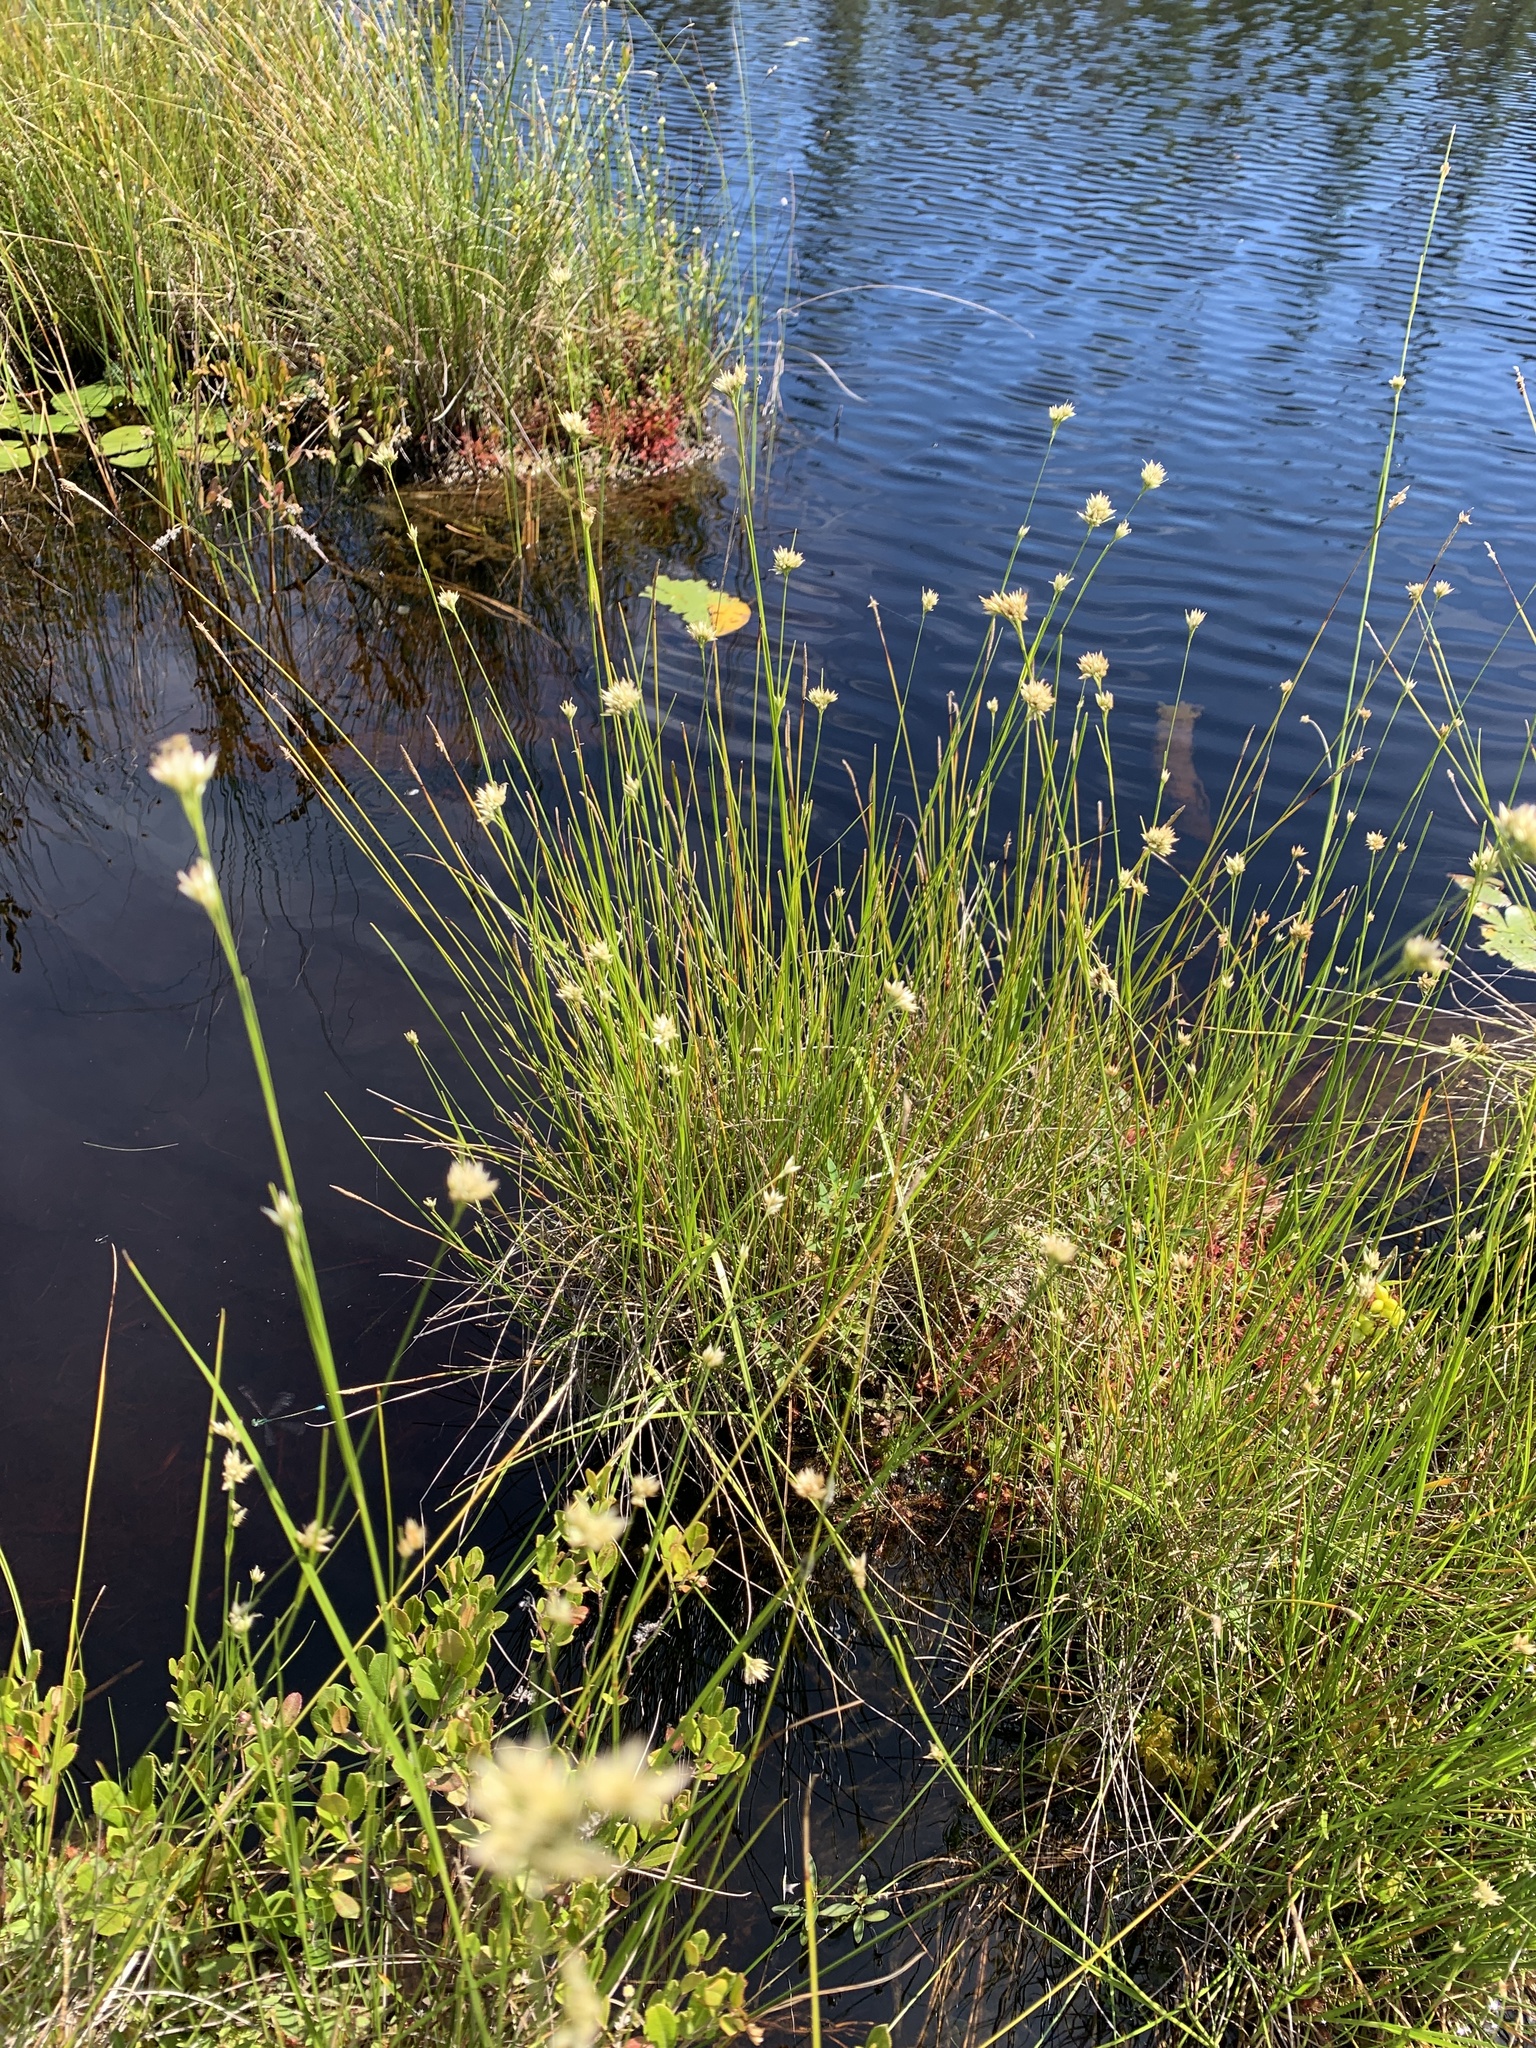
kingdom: Plantae
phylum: Tracheophyta
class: Liliopsida
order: Poales
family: Cyperaceae
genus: Rhynchospora
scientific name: Rhynchospora alba
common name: White beak-sedge
